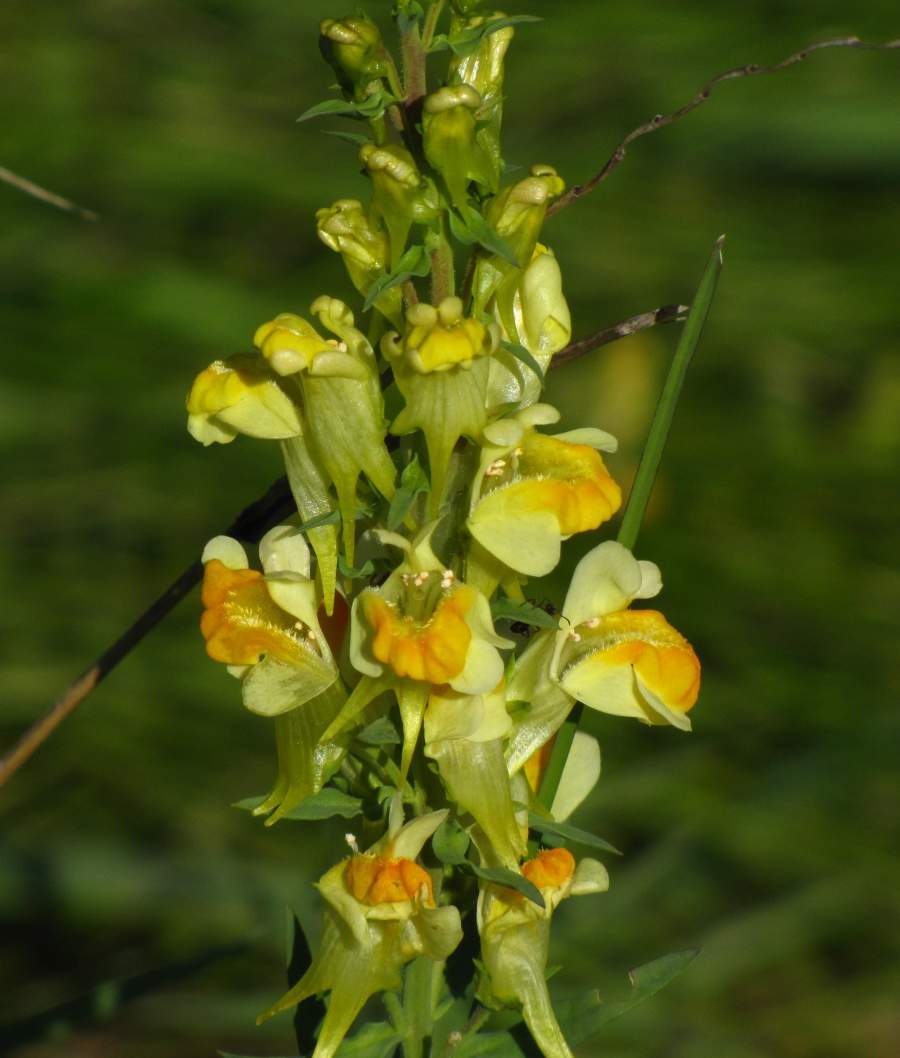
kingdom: Plantae
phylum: Tracheophyta
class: Magnoliopsida
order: Lamiales
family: Plantaginaceae
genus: Linaria
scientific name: Linaria vulgaris
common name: Butter and eggs
